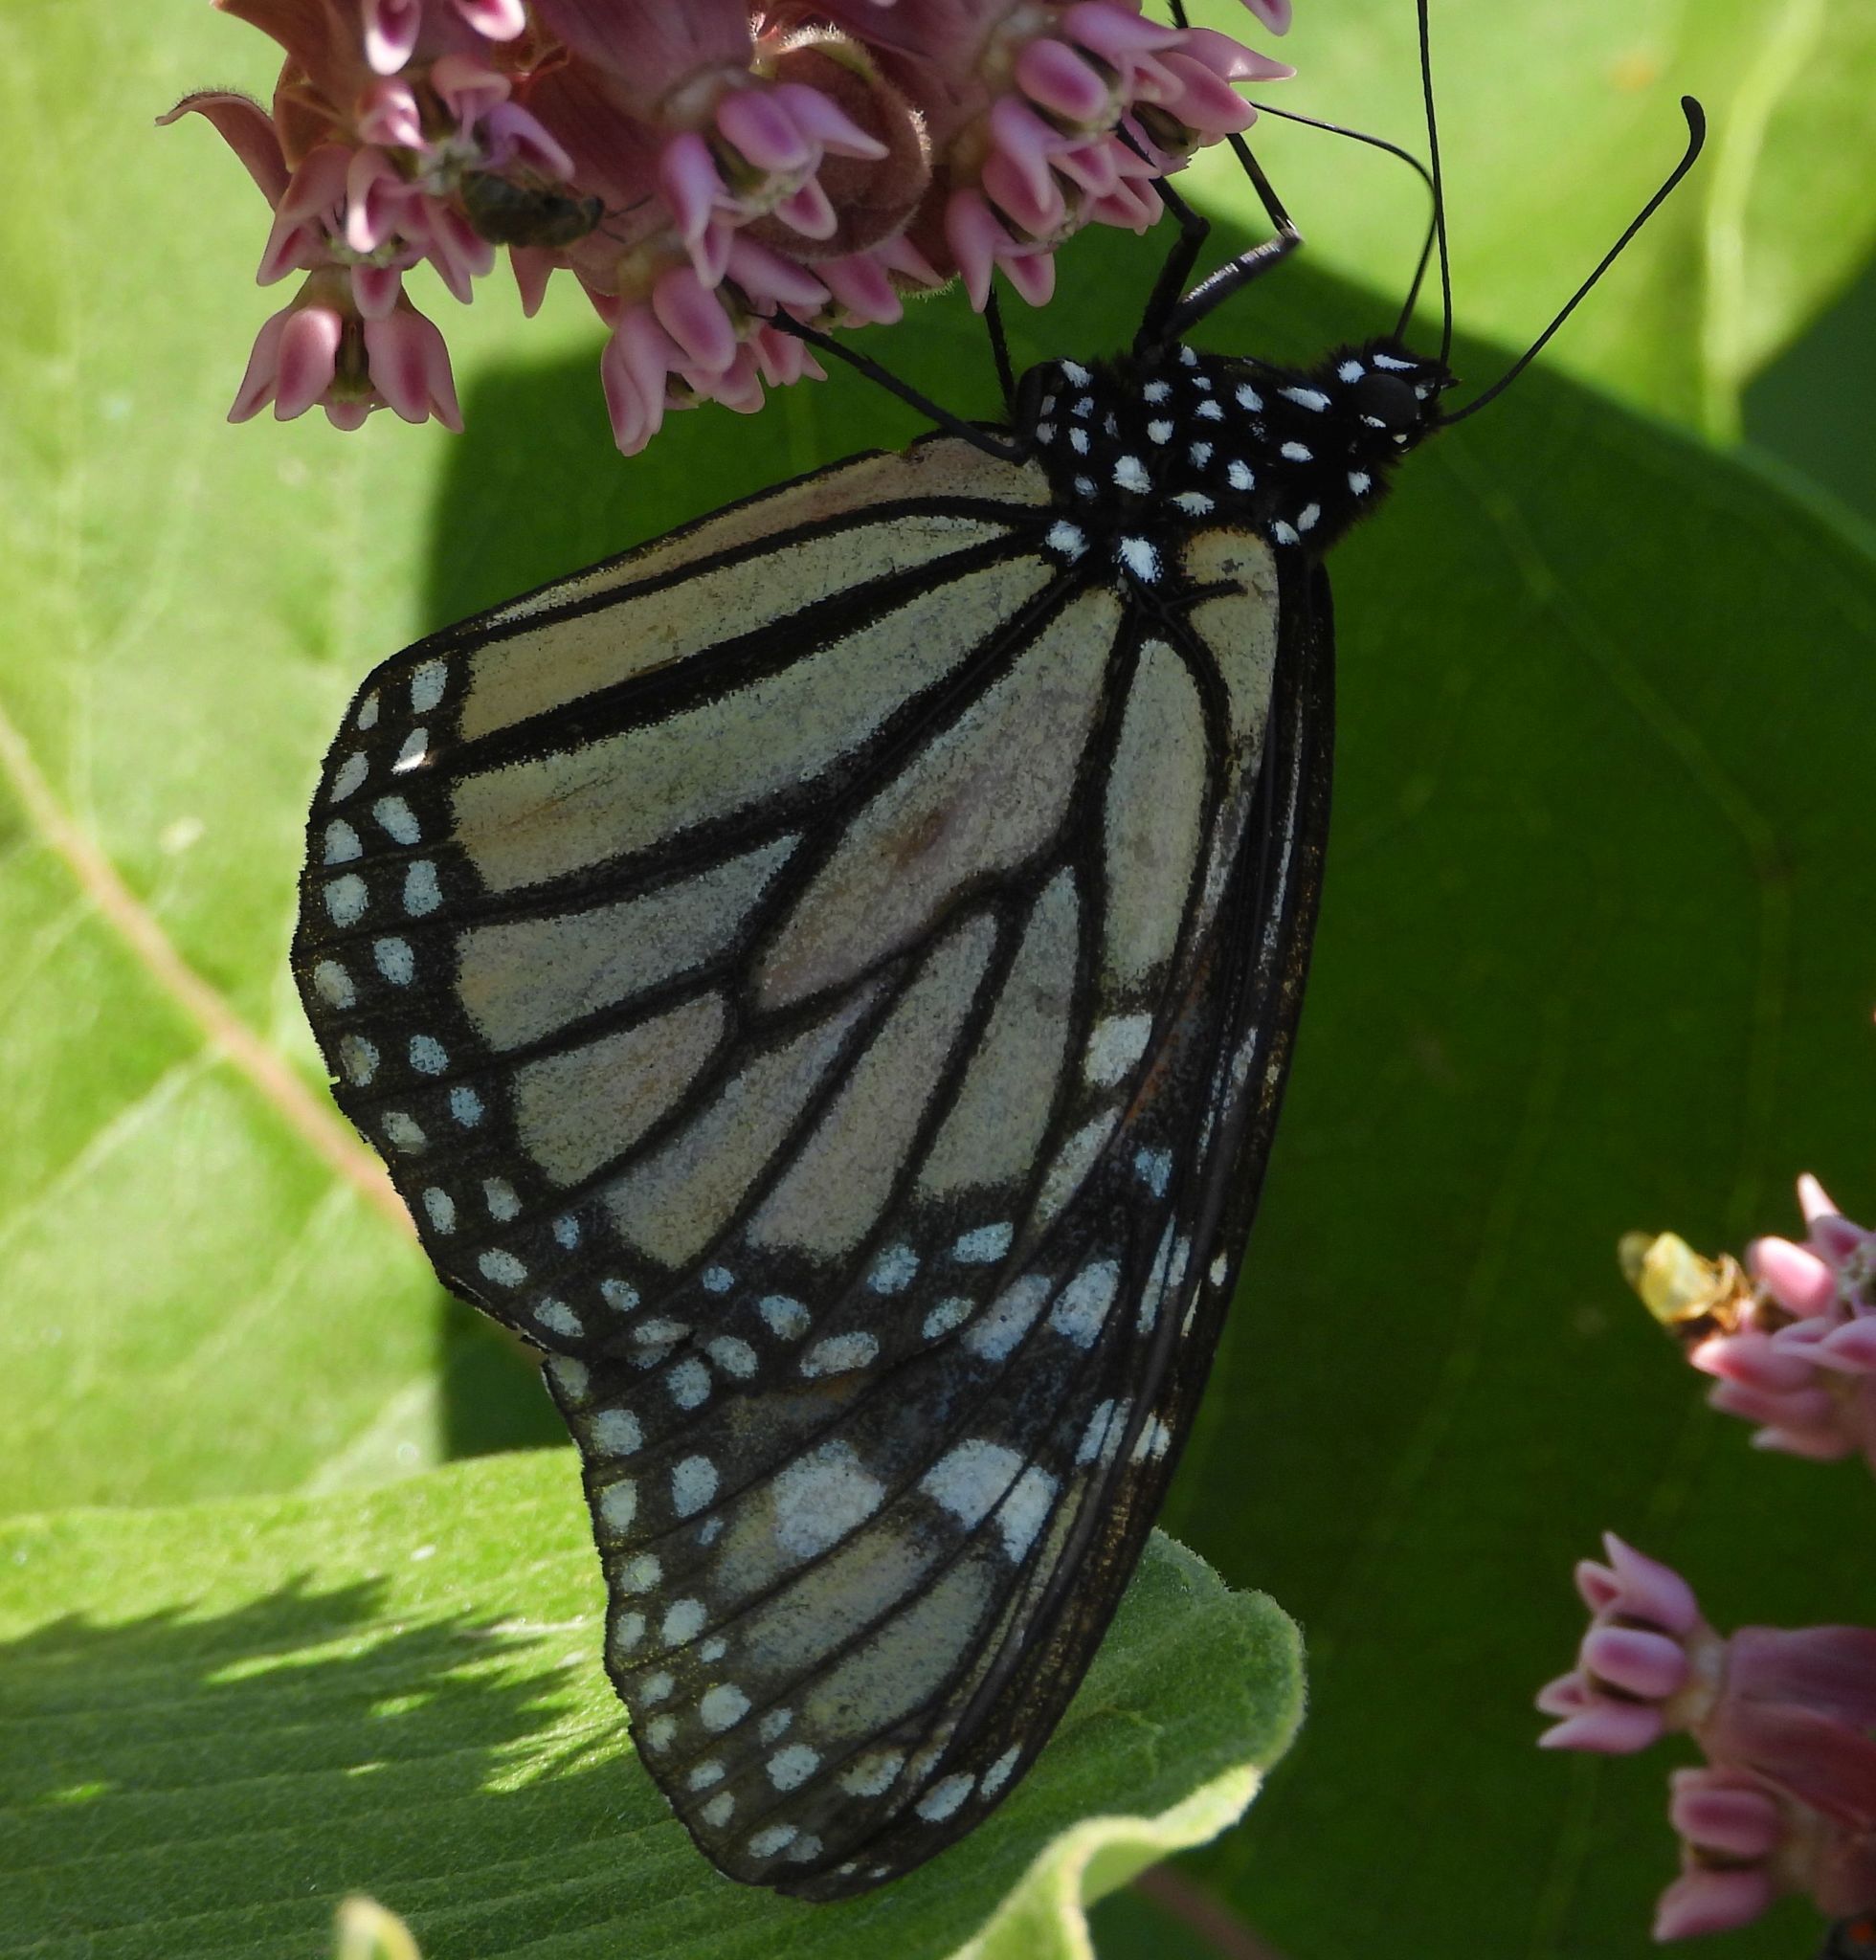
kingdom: Animalia
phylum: Arthropoda
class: Insecta
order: Lepidoptera
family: Nymphalidae
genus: Danaus
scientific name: Danaus plexippus
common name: Monarch
